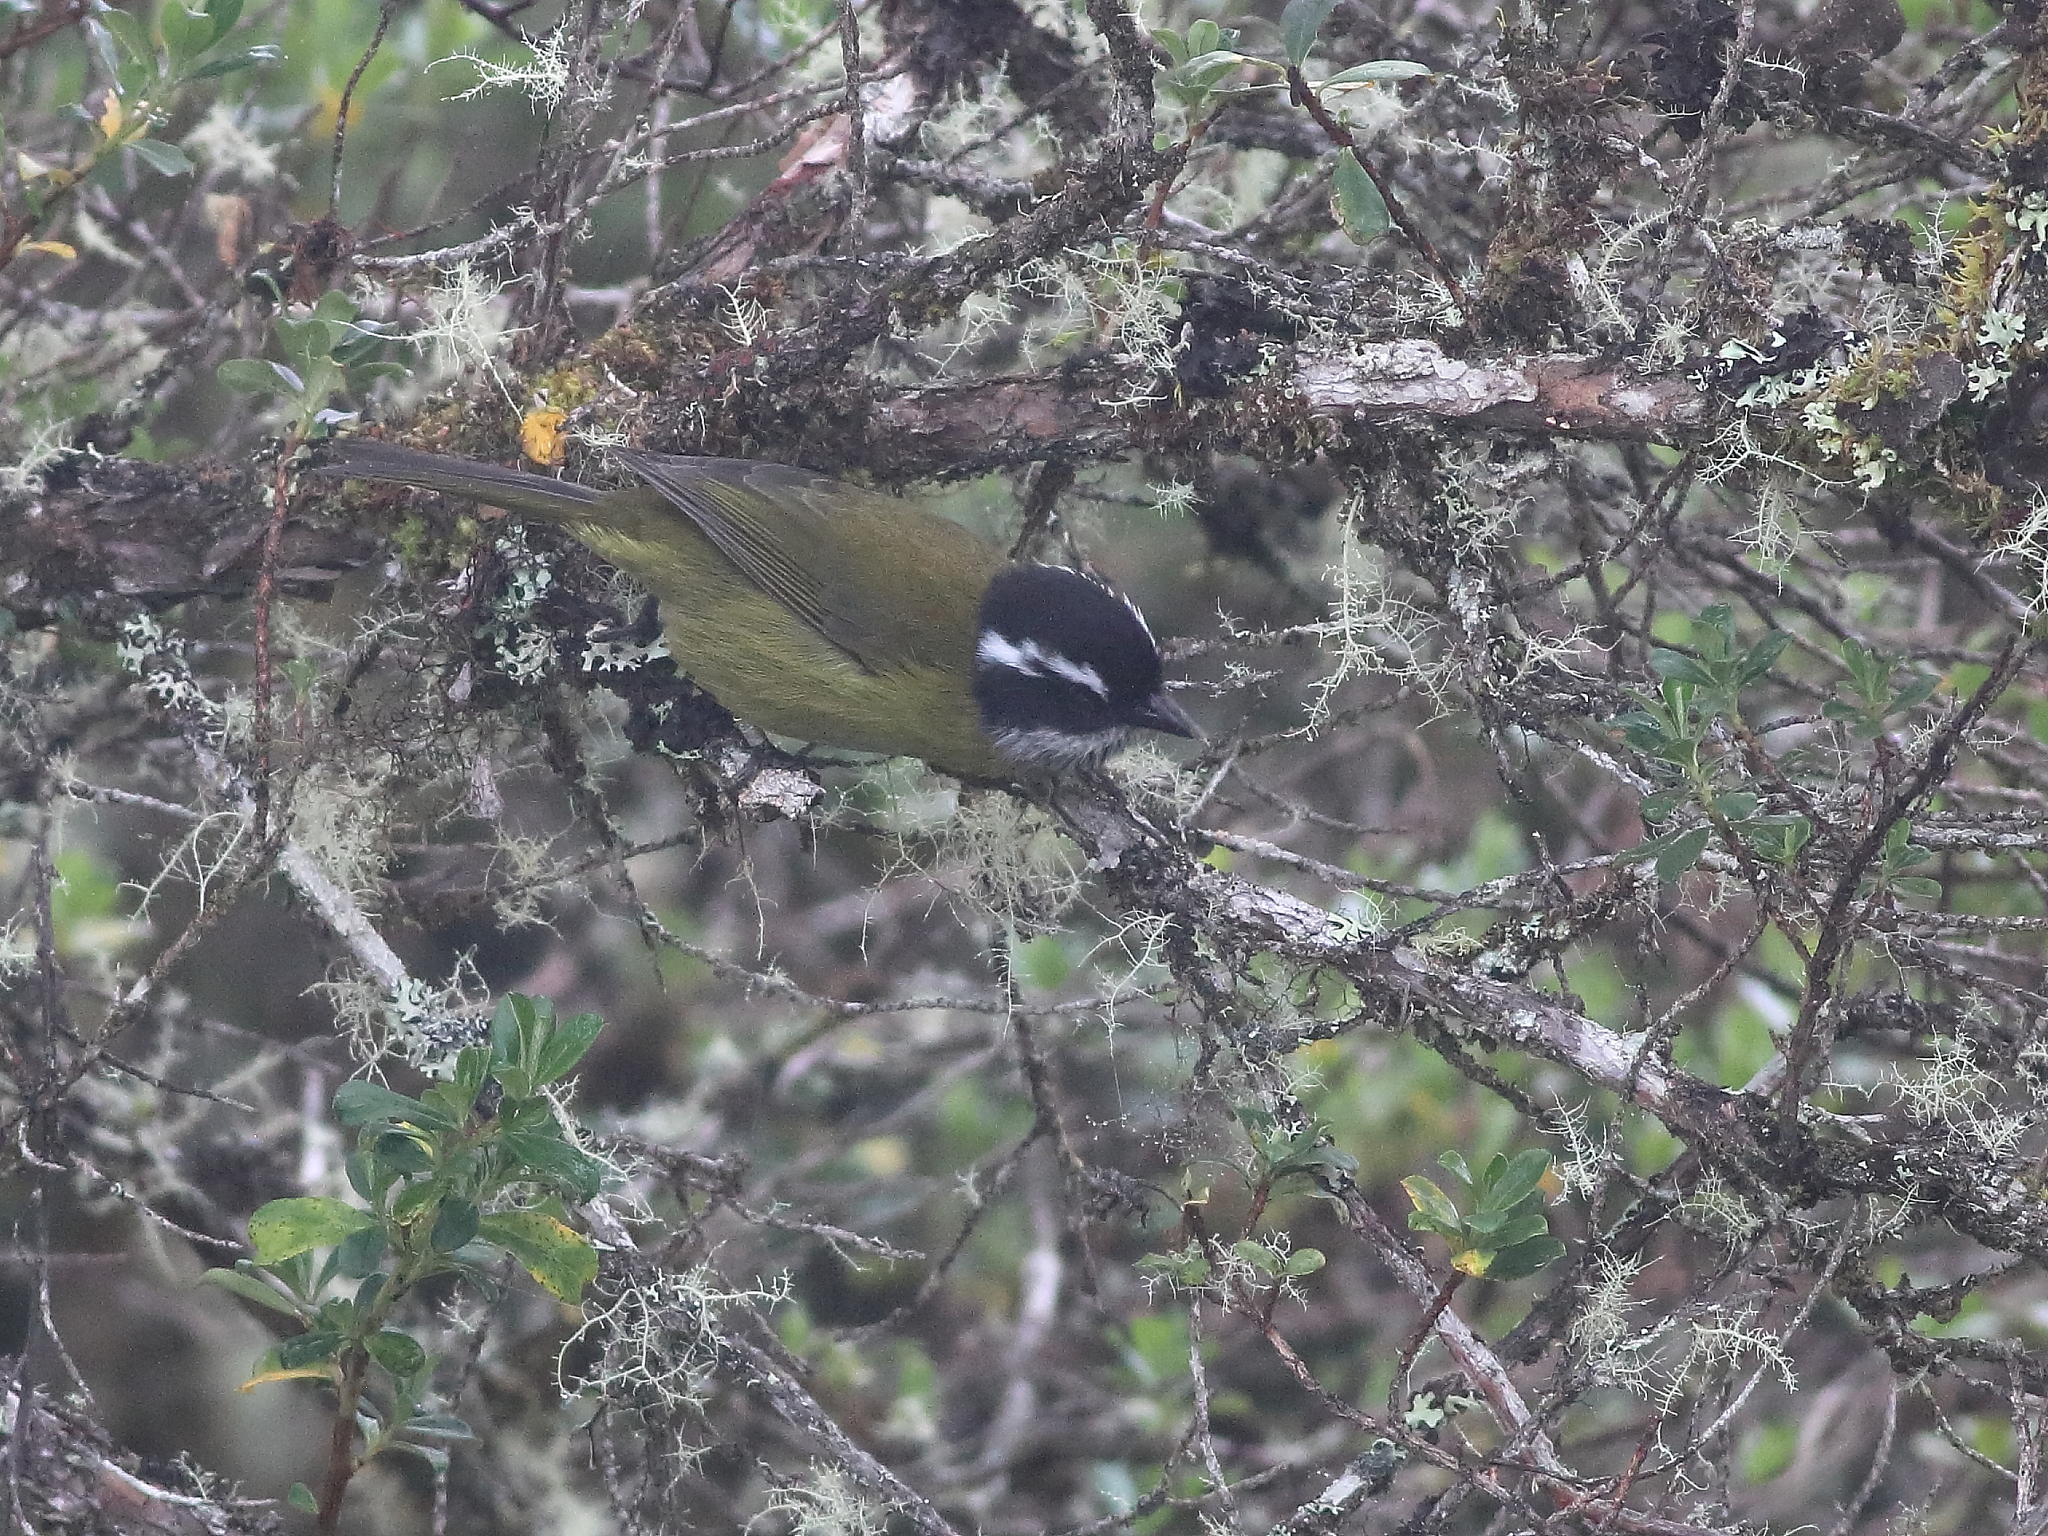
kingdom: Animalia
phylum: Chordata
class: Aves
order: Passeriformes
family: Passerellidae
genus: Chlorospingus
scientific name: Chlorospingus pileatus
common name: Sooty-capped bush-tanager
